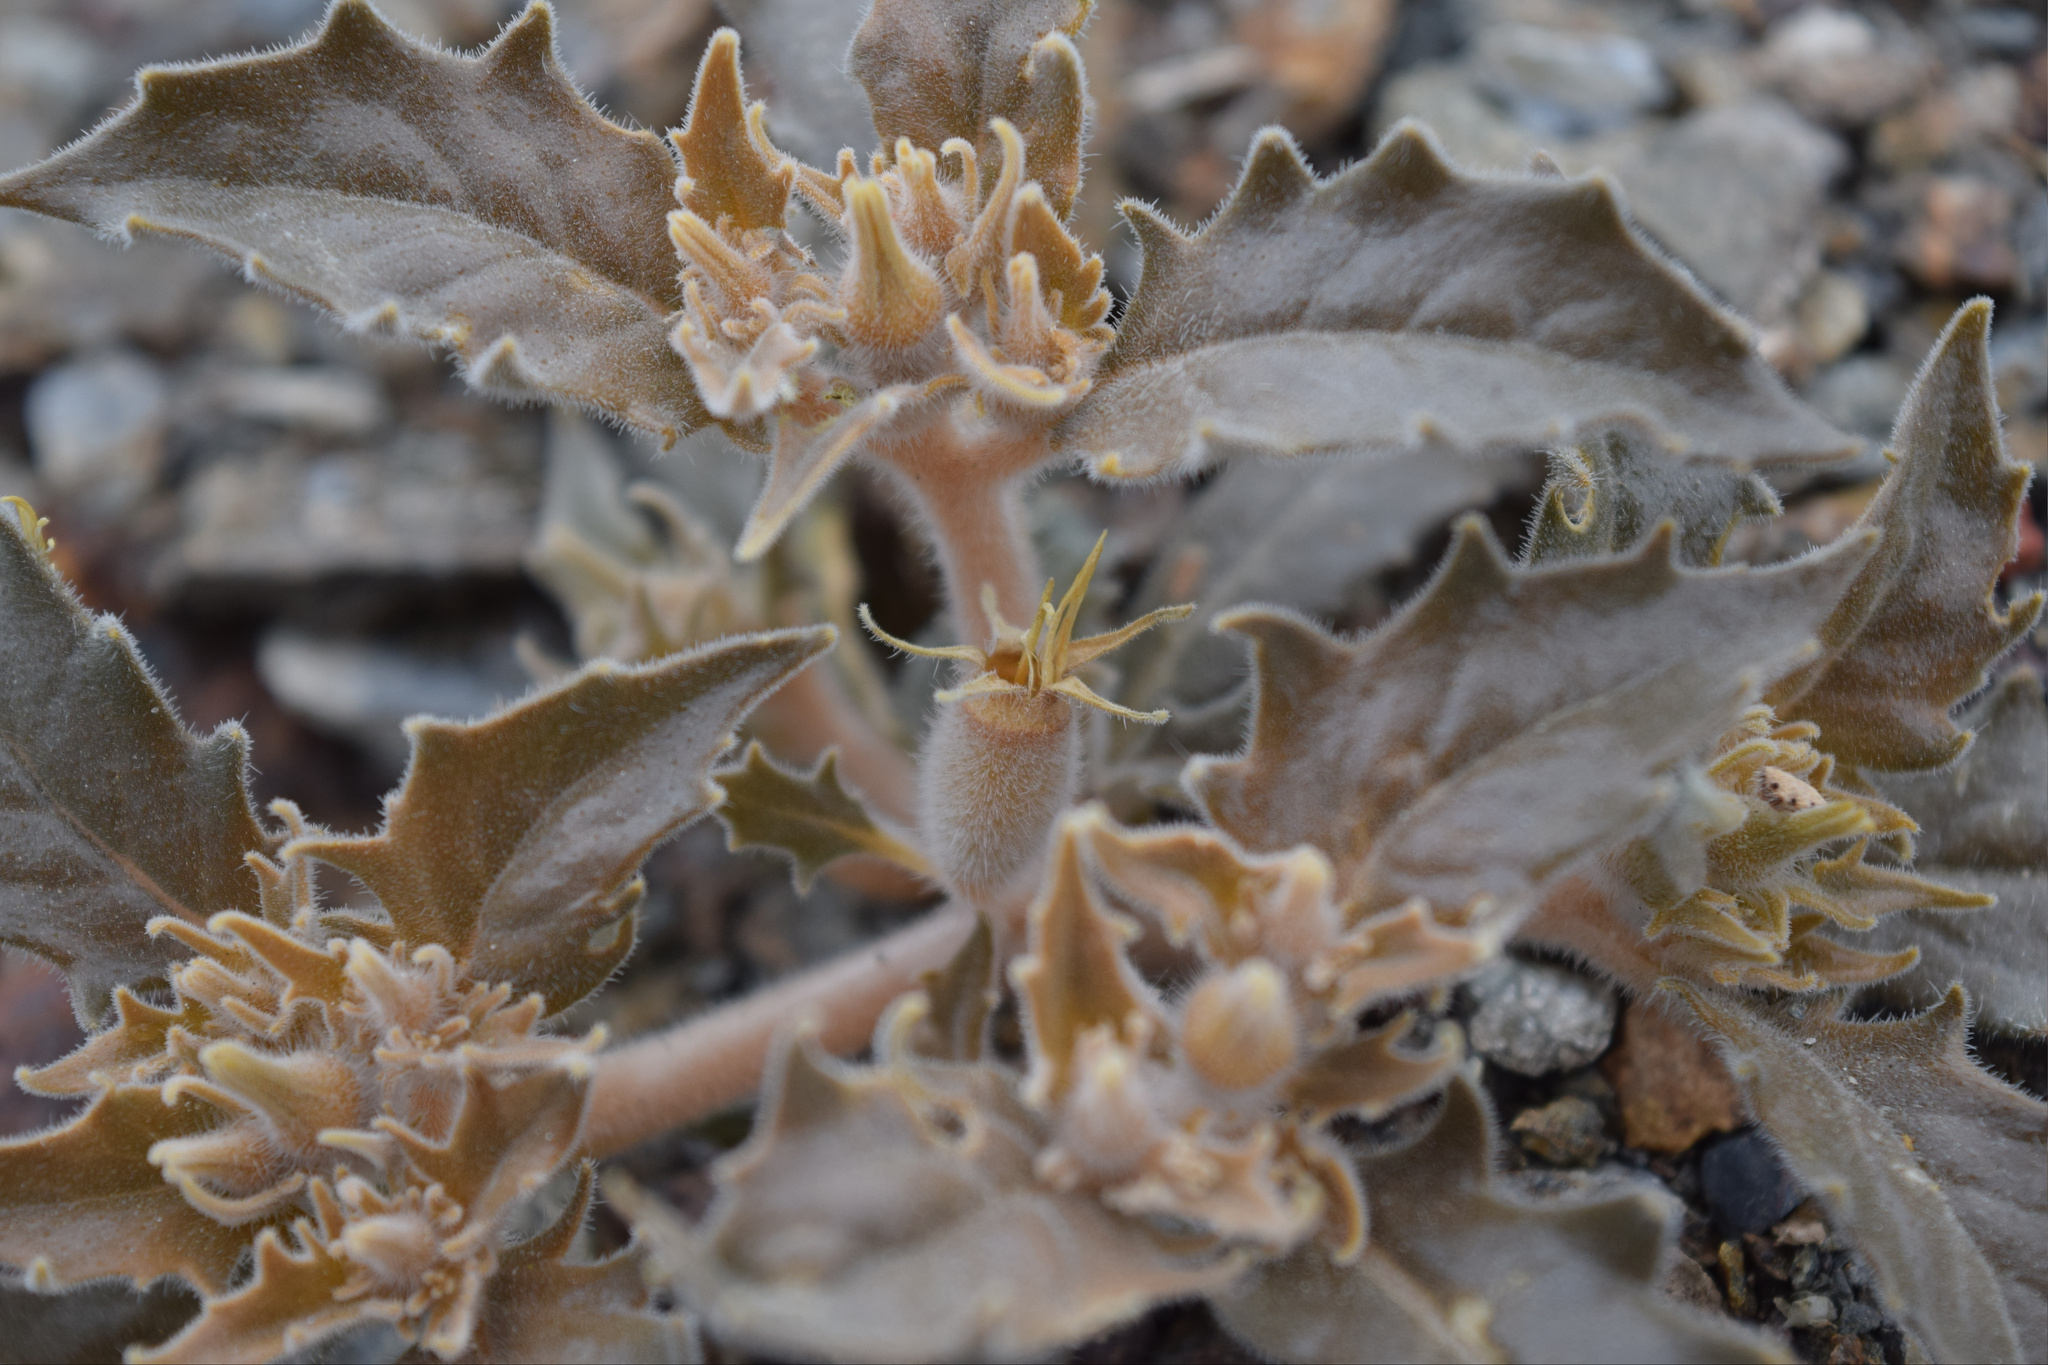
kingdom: Plantae
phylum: Tracheophyta
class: Magnoliopsida
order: Cornales
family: Loasaceae
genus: Mentzelia
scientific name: Mentzelia reflexa
